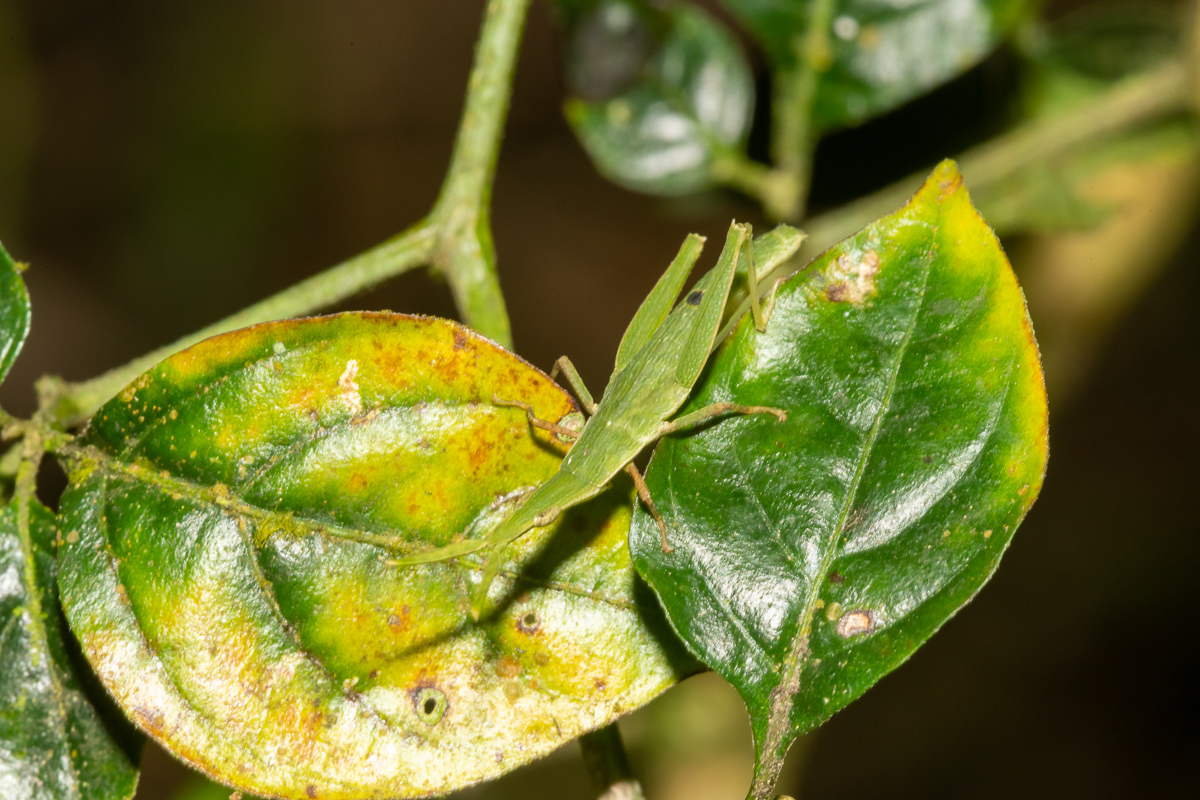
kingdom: Animalia
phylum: Arthropoda
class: Insecta
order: Orthoptera
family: Pyrgomorphidae
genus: Omura
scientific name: Omura congrua
